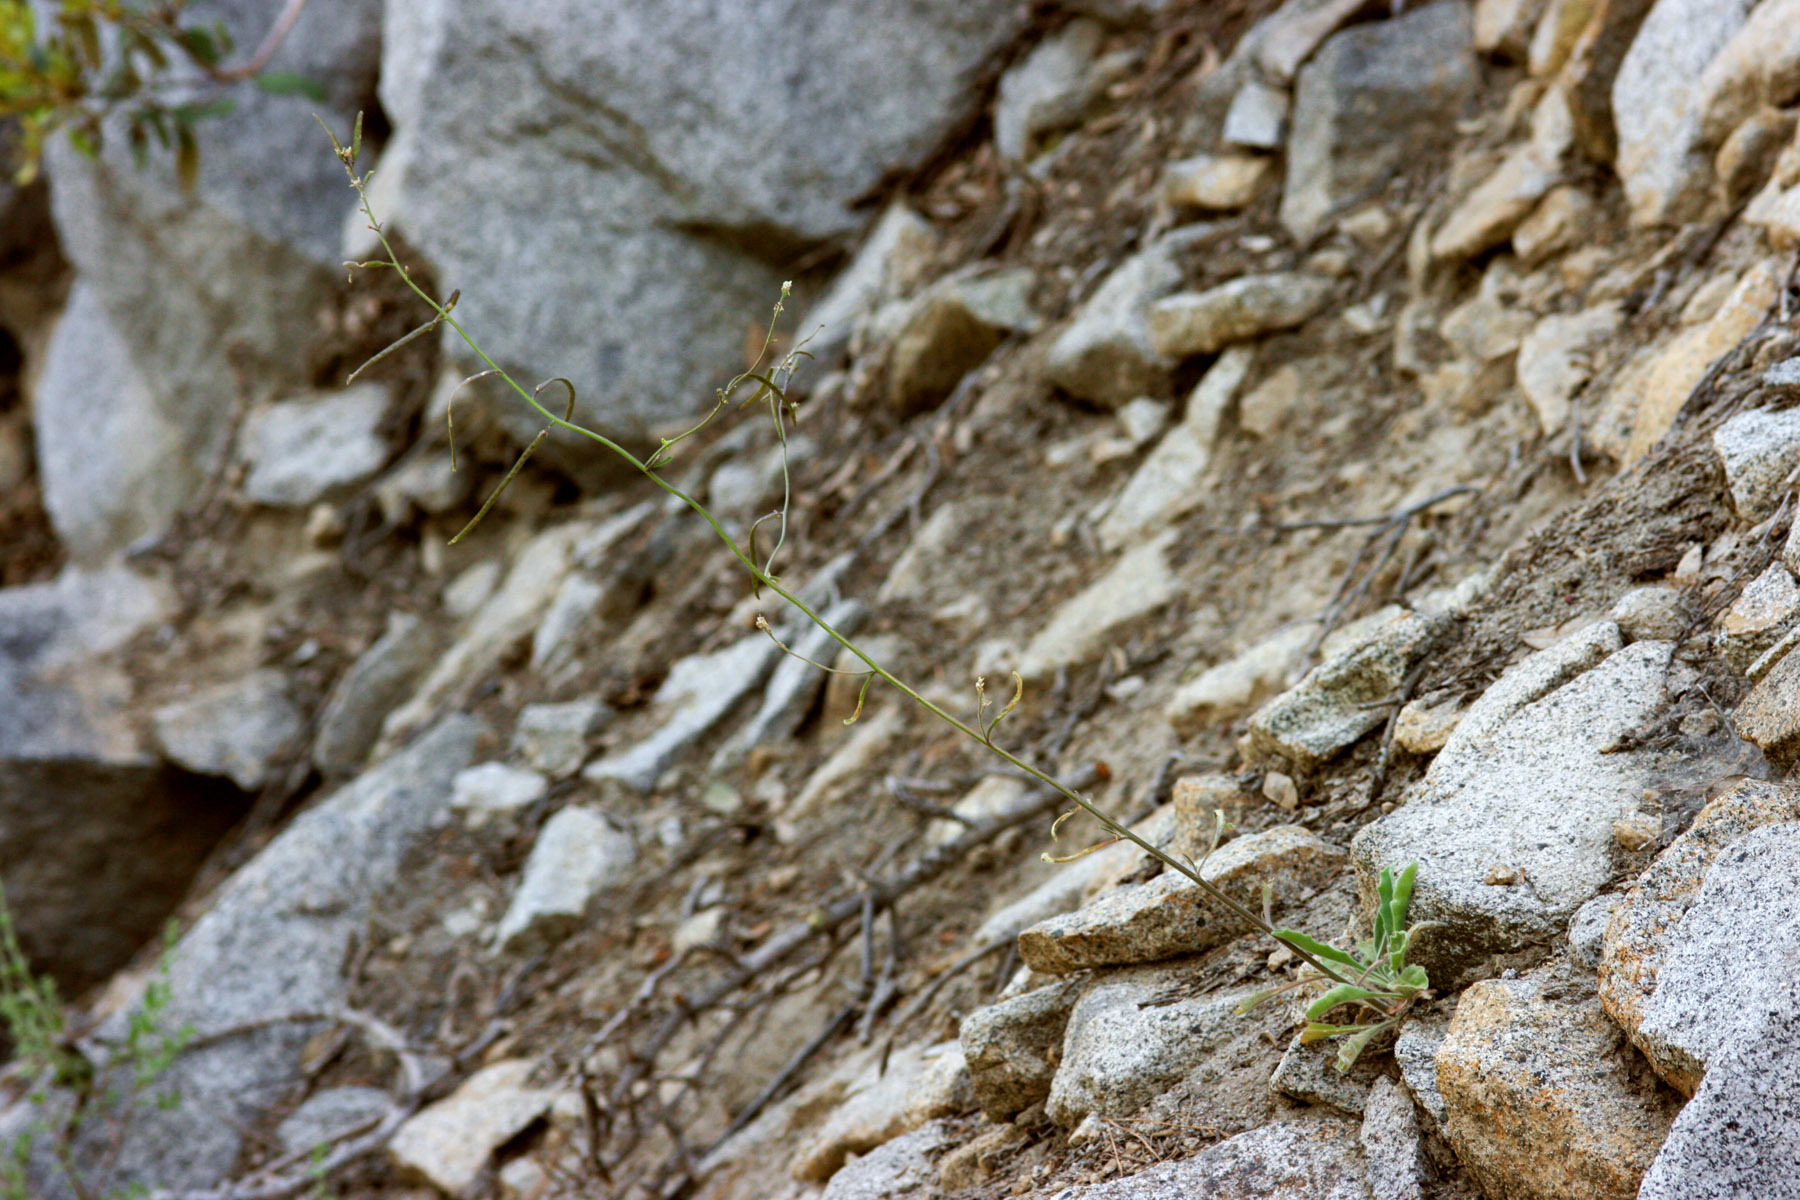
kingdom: Plantae
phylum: Tracheophyta
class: Magnoliopsida
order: Brassicales
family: Brassicaceae
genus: Yosemitea
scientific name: Yosemitea repanda
